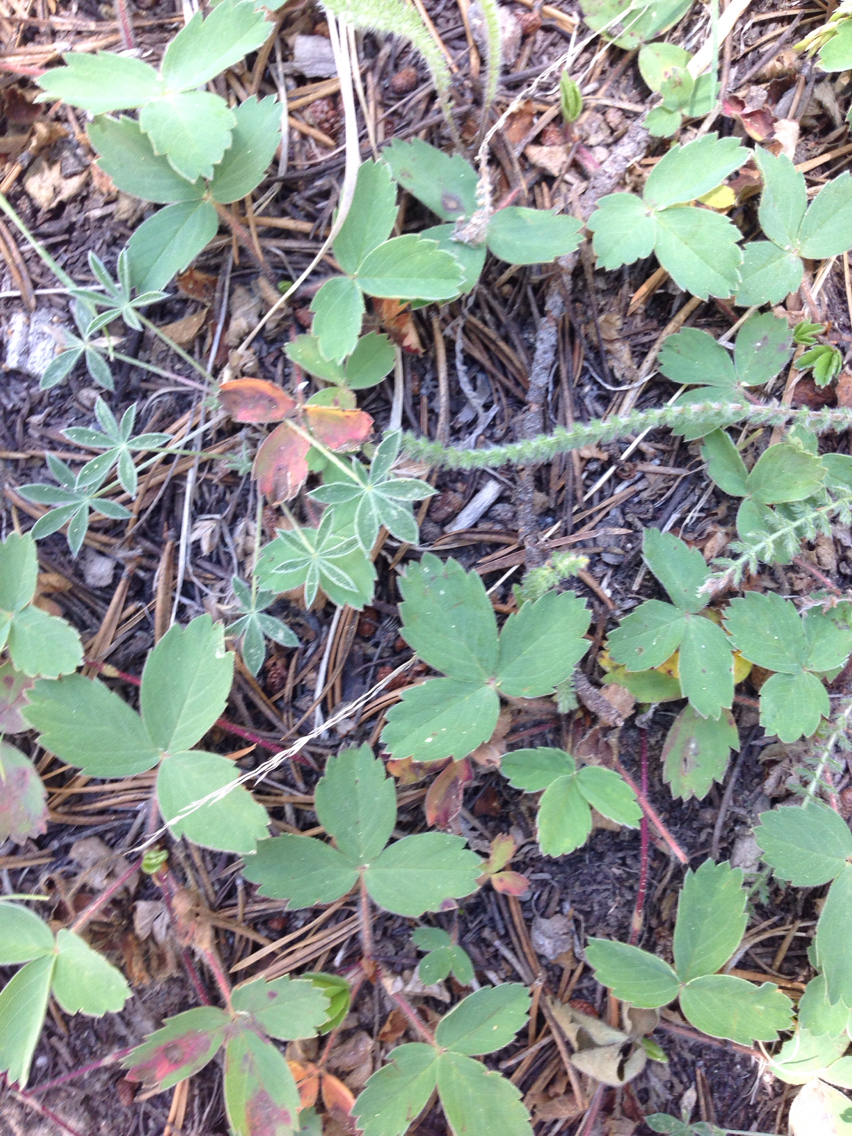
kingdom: Plantae
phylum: Tracheophyta
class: Magnoliopsida
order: Rosales
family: Rosaceae
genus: Fragaria
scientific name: Fragaria virginiana
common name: Thickleaved wild strawberry
